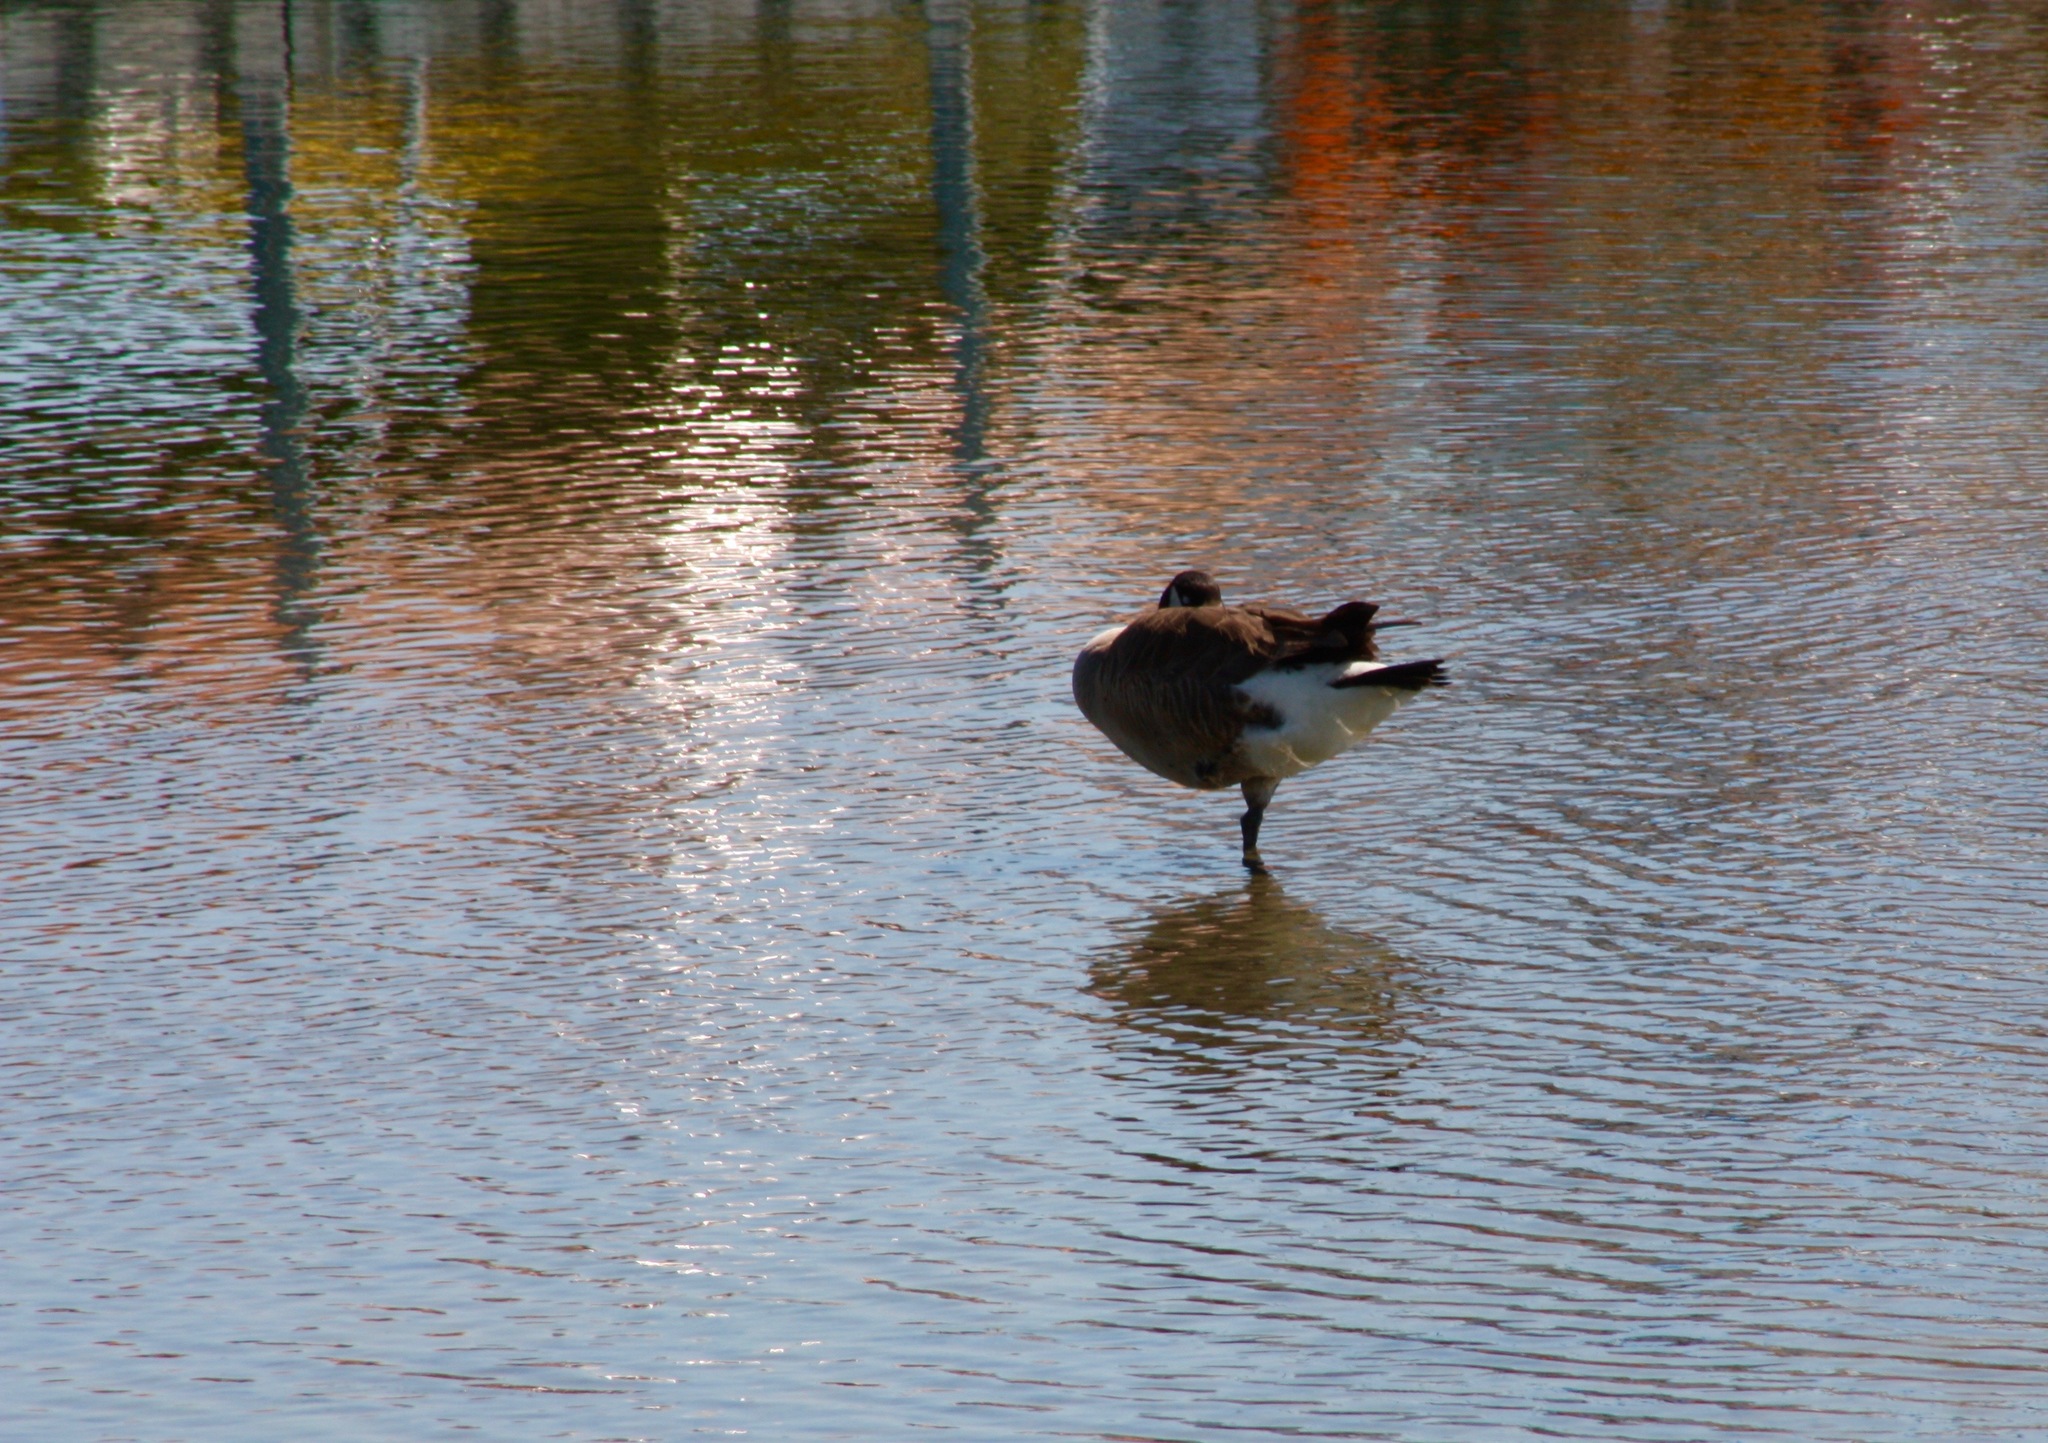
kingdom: Animalia
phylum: Chordata
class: Aves
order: Anseriformes
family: Anatidae
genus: Branta
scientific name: Branta canadensis
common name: Canada goose
